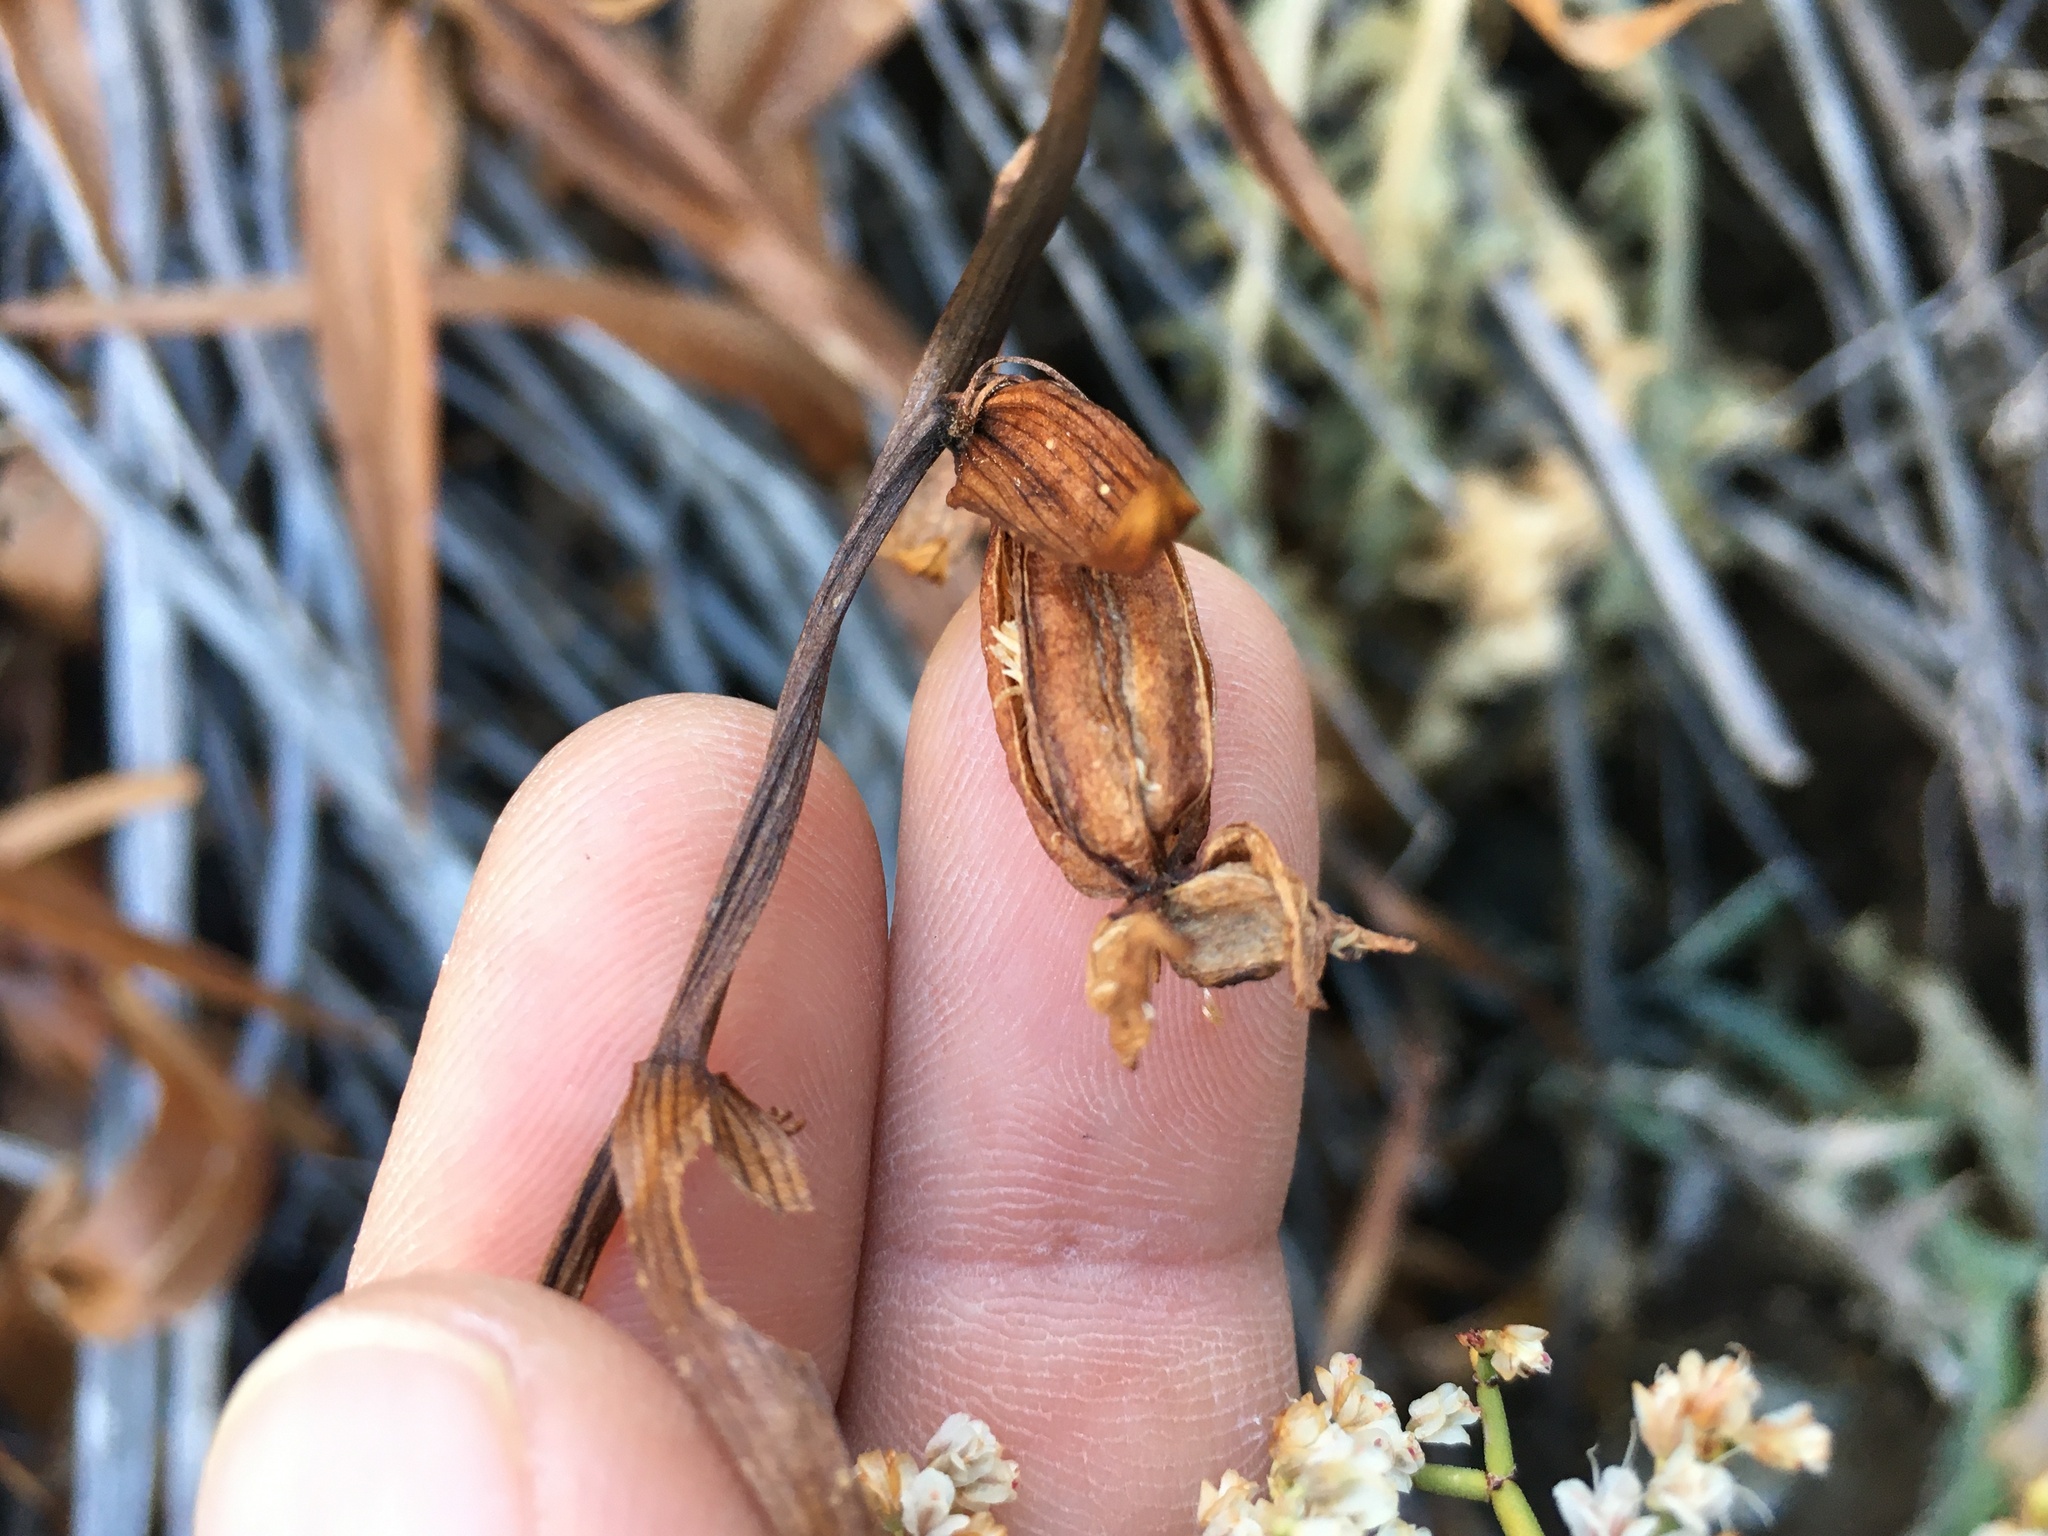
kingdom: Plantae
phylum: Tracheophyta
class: Liliopsida
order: Asparagales
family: Orchidaceae
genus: Epipactis
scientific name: Epipactis gigantea
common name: Chatterbox
